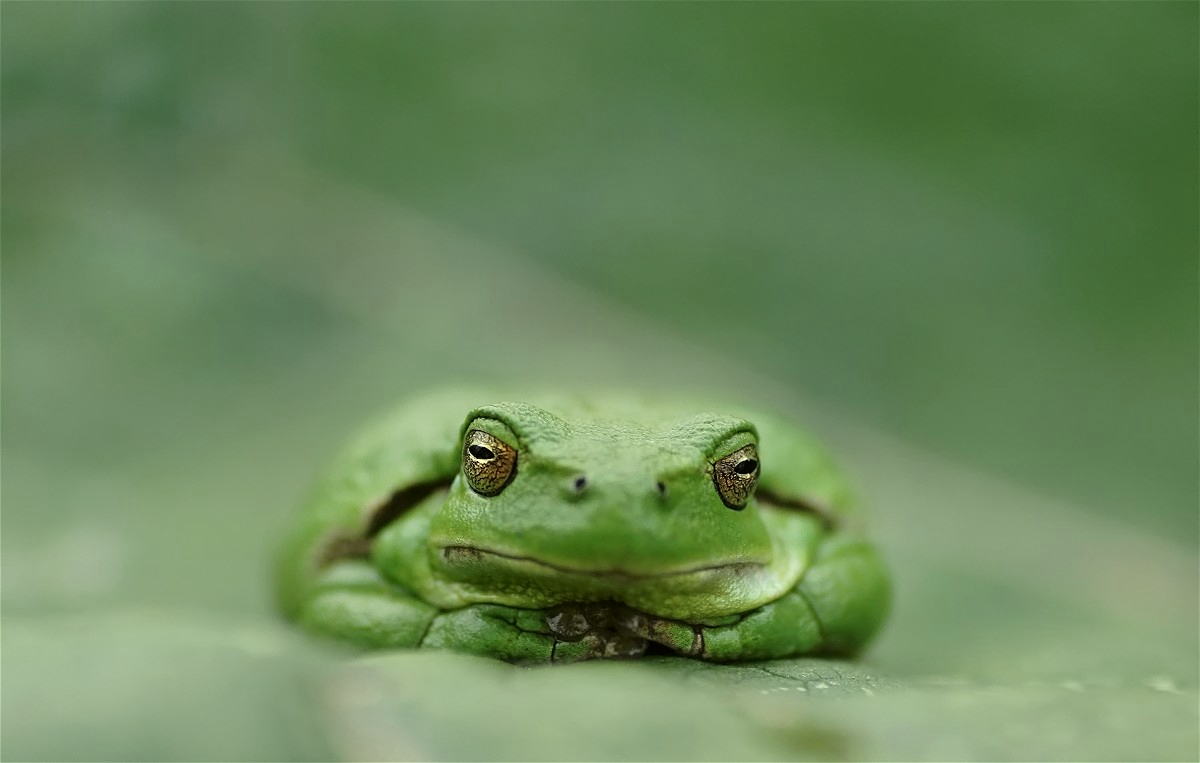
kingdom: Animalia
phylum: Chordata
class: Amphibia
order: Anura
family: Hylidae
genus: Hyla
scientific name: Hyla arborea
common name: Common tree frog
